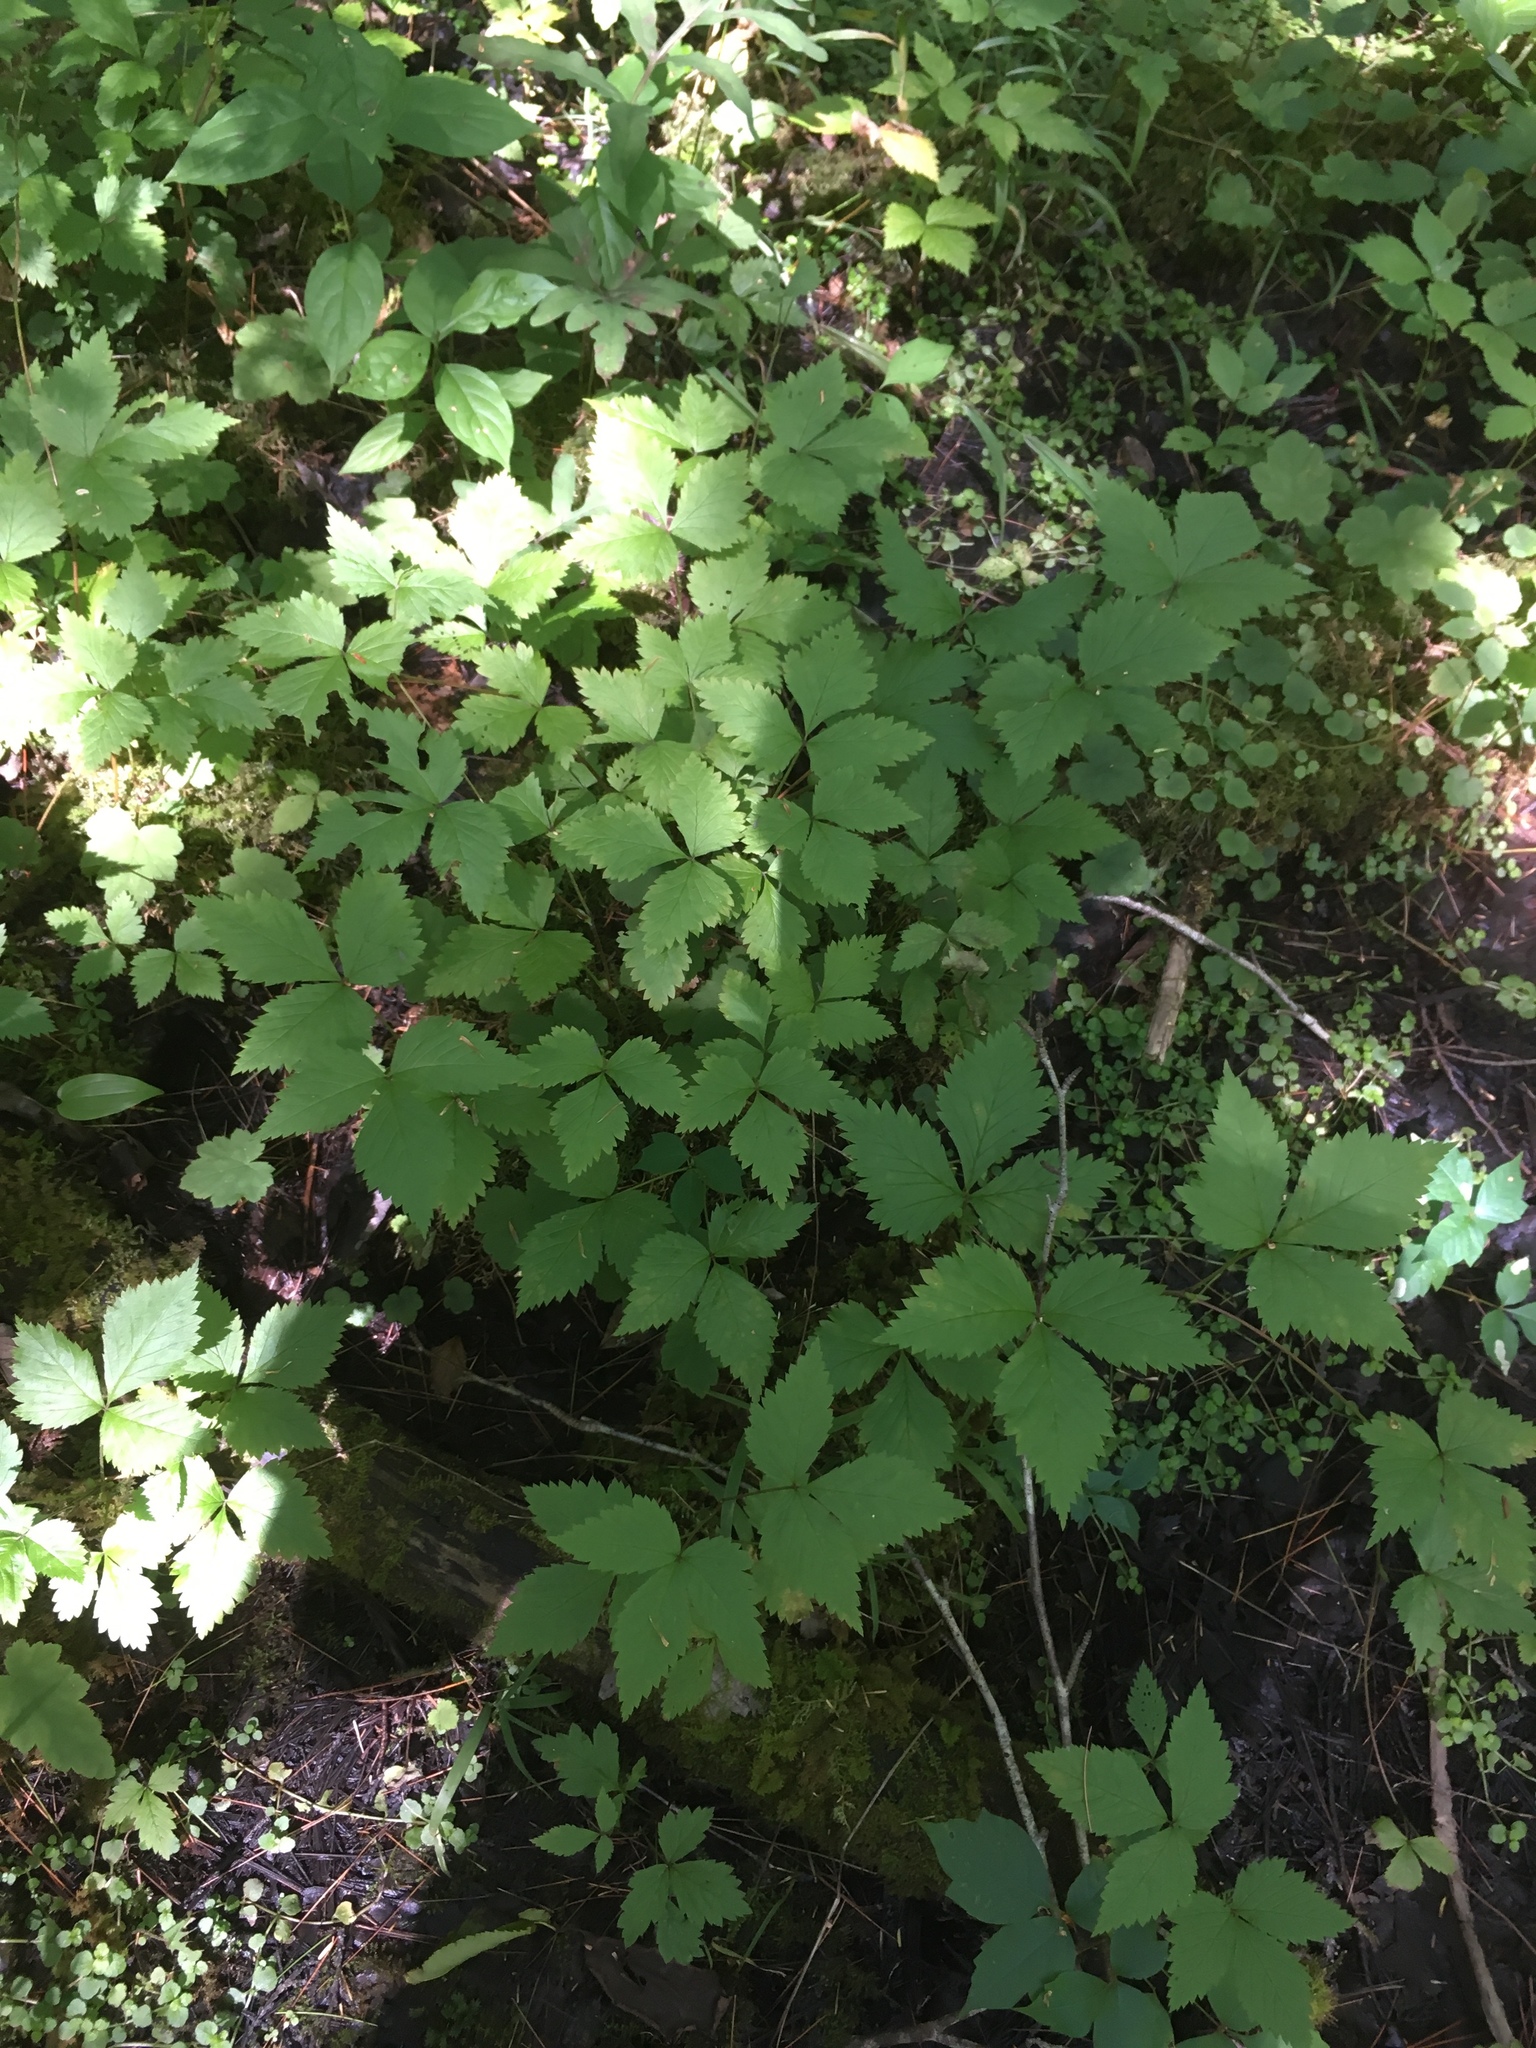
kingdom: Plantae
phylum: Tracheophyta
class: Magnoliopsida
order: Rosales
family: Rosaceae
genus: Rubus
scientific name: Rubus pubescens
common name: Dwarf raspberry
